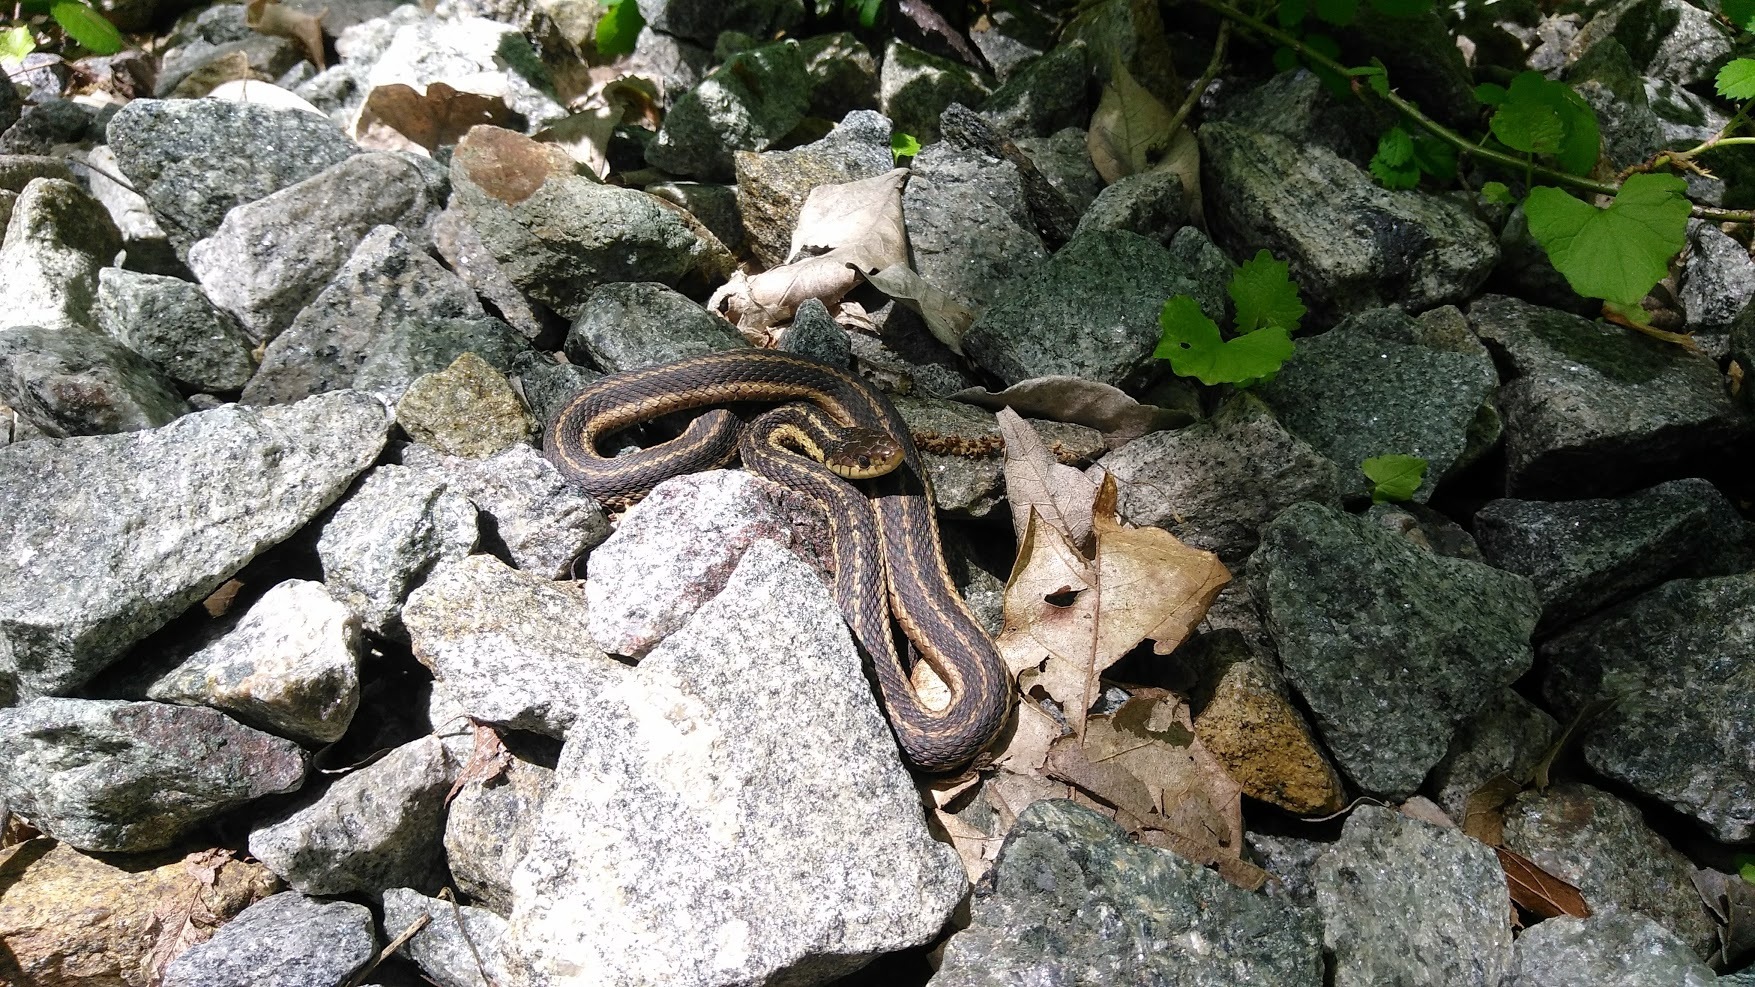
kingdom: Animalia
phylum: Chordata
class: Squamata
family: Colubridae
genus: Thamnophis
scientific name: Thamnophis sirtalis
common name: Common garter snake
